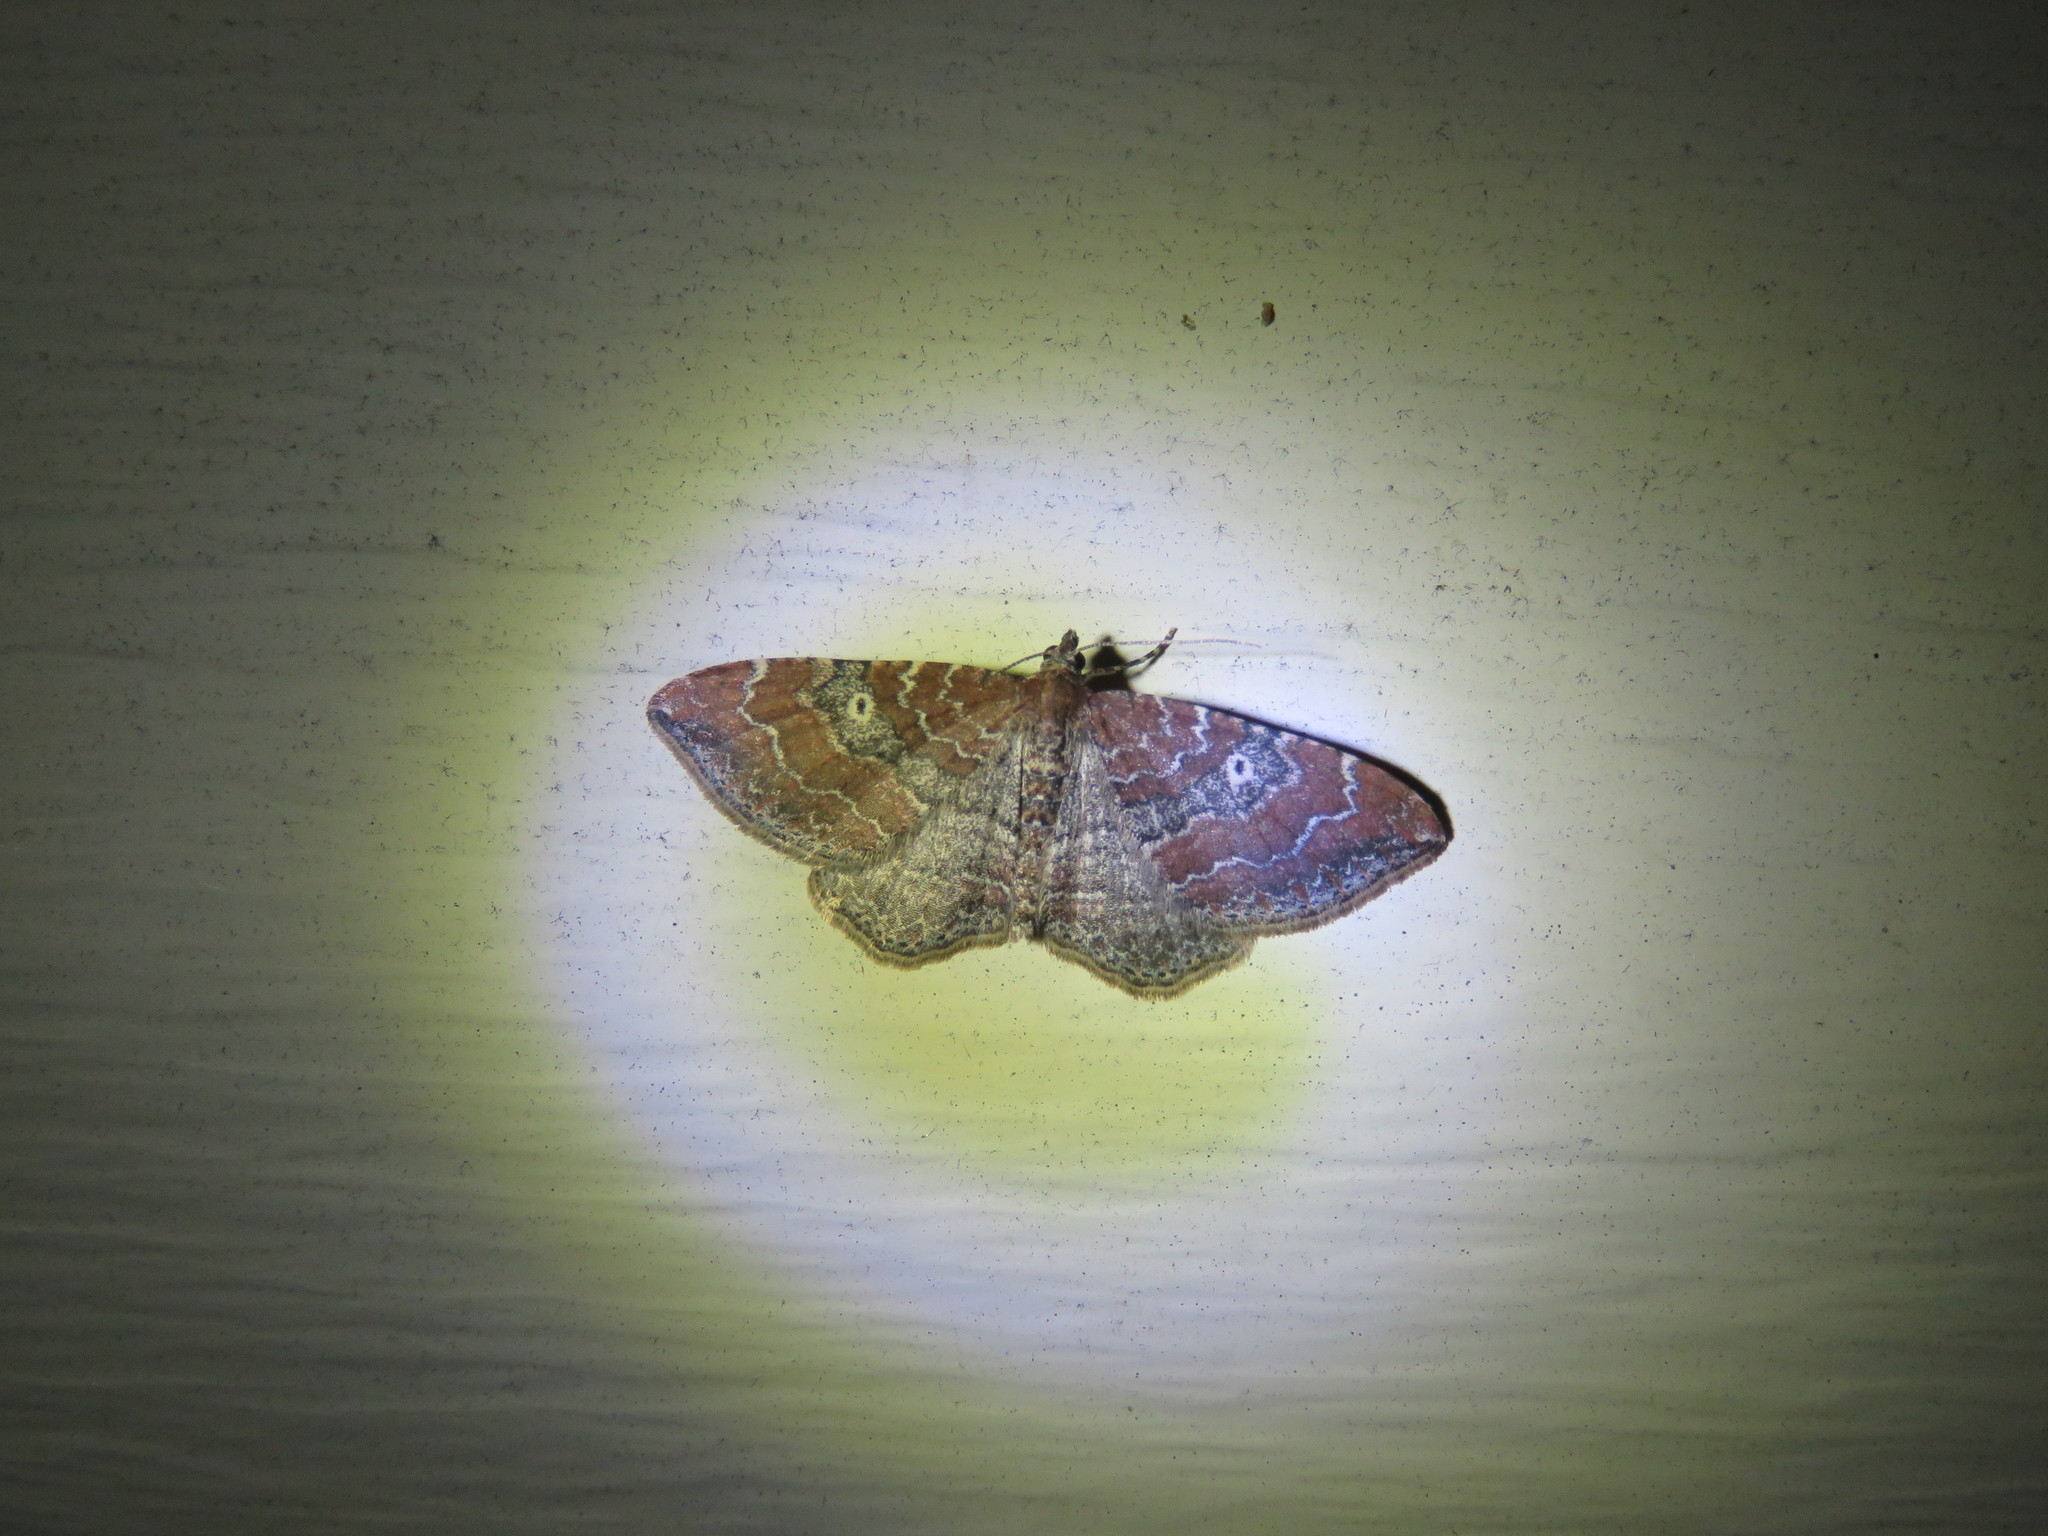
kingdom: Animalia
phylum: Arthropoda
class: Insecta
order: Lepidoptera
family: Geometridae
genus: Orthonama
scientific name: Orthonama obstipata
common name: The gem
